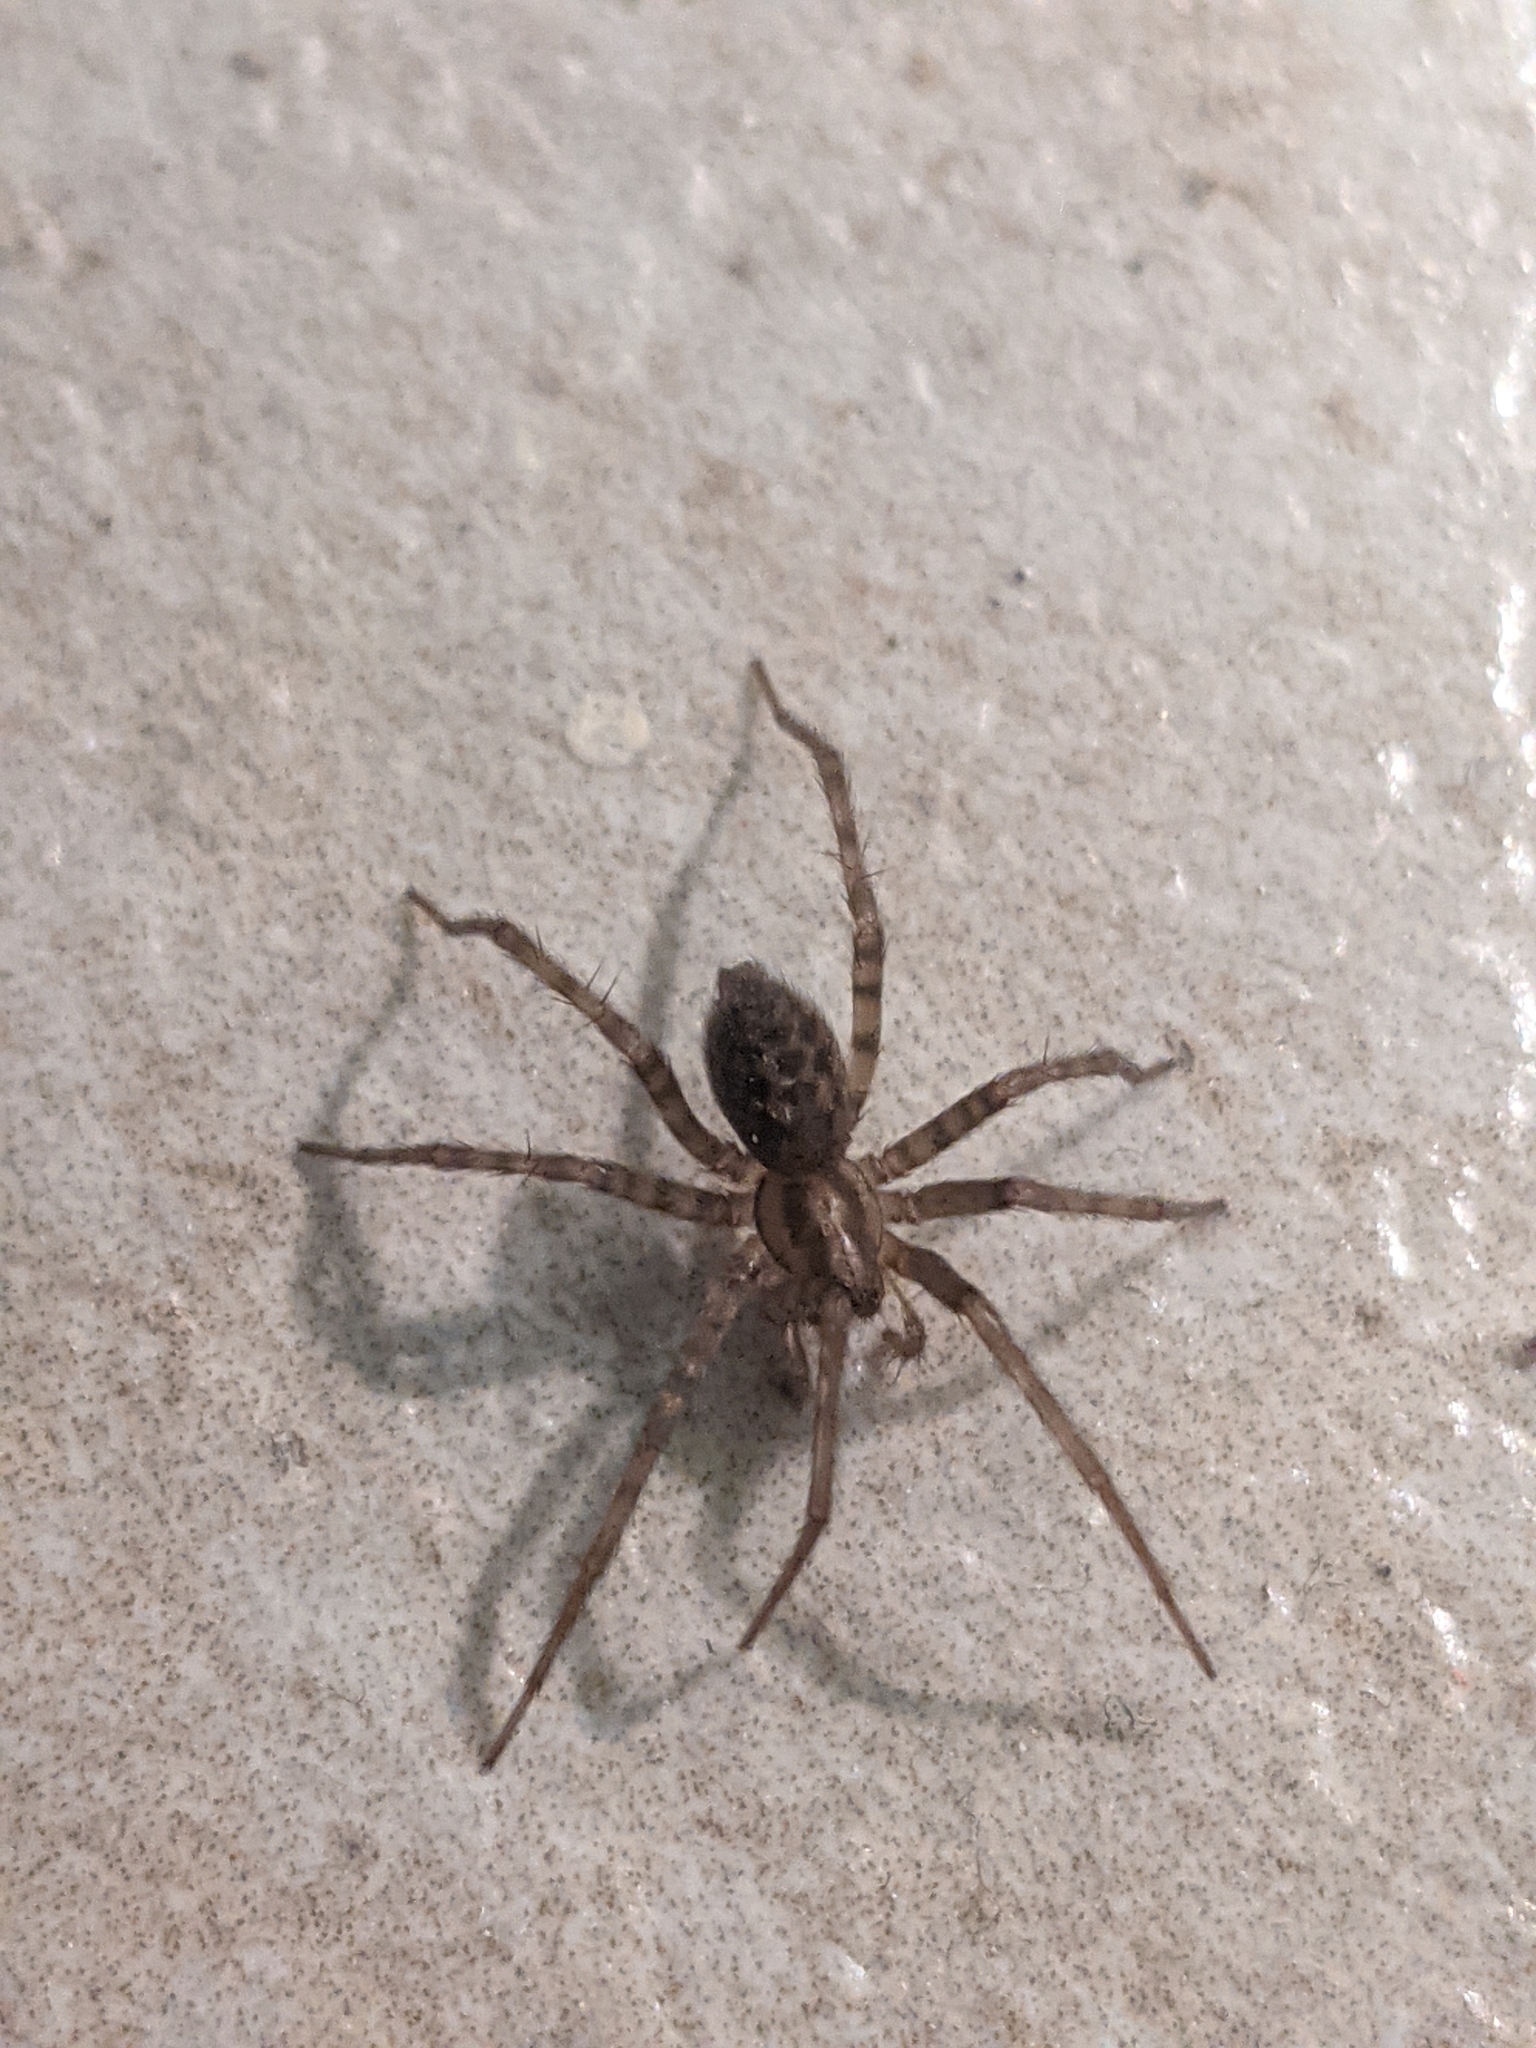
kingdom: Animalia
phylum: Arthropoda
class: Arachnida
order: Araneae
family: Agelenidae
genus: Tegenaria
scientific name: Tegenaria domestica
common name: Barn funnel weaver
